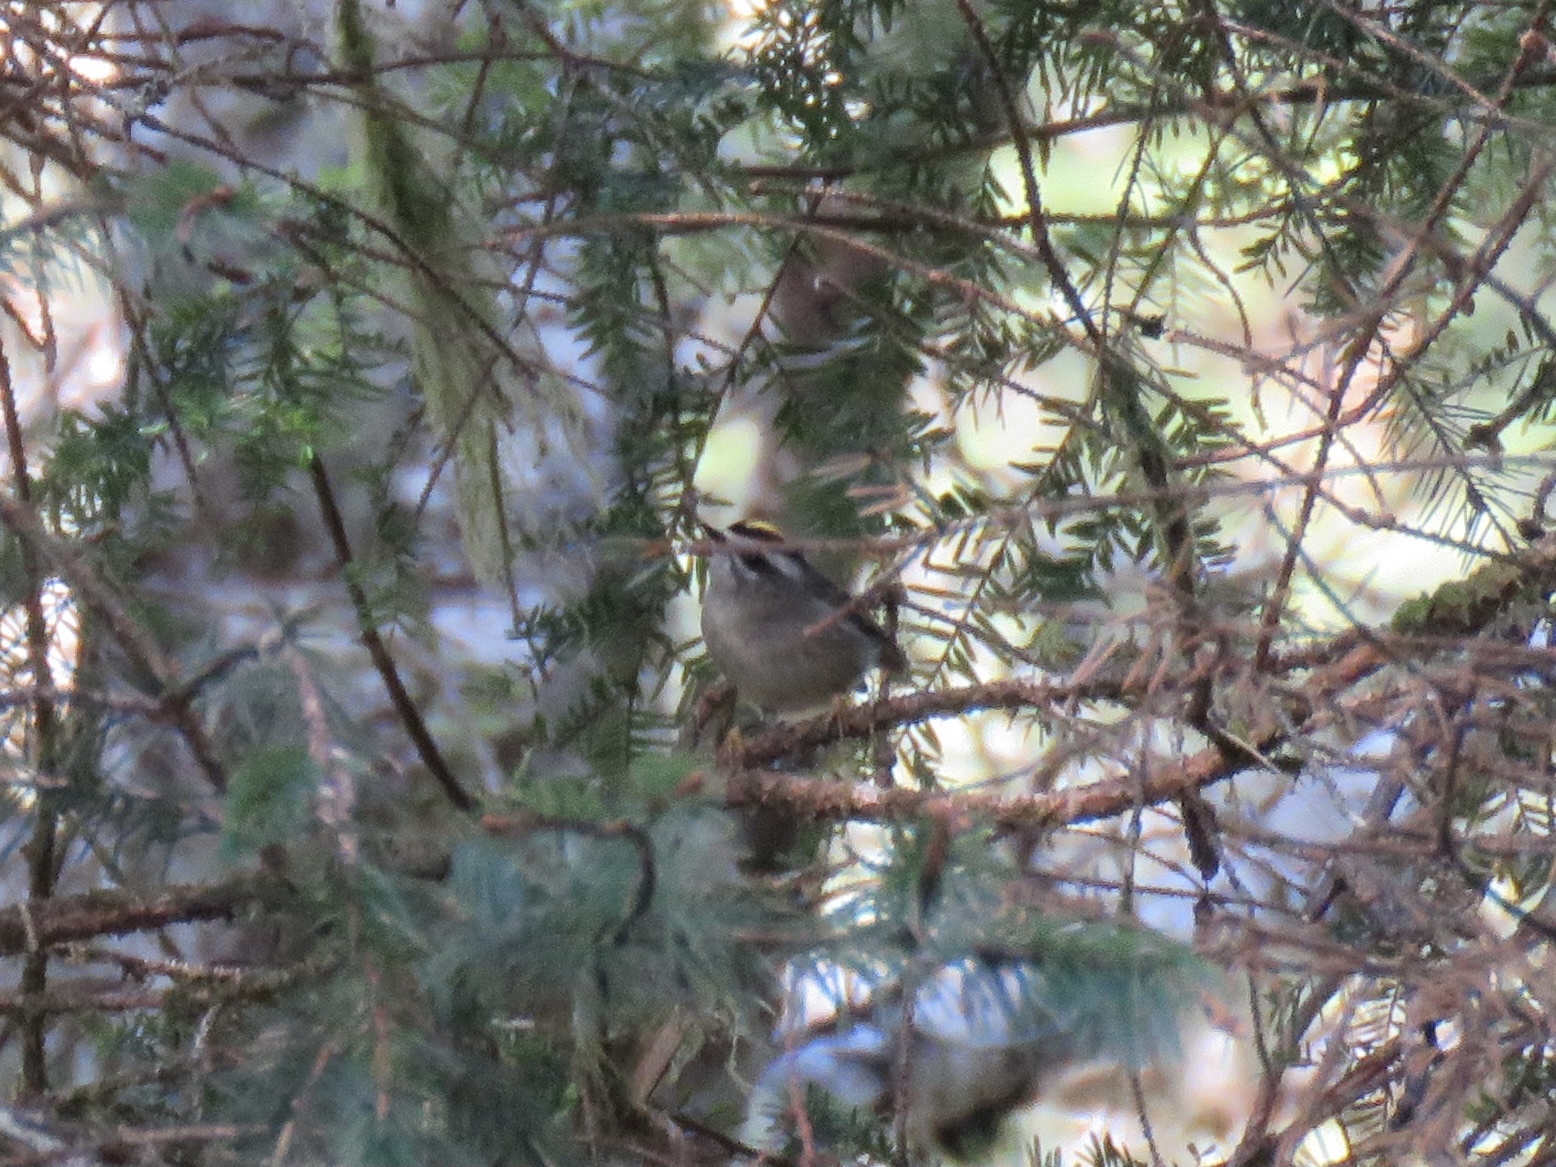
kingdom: Animalia
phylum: Chordata
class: Aves
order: Passeriformes
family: Regulidae
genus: Regulus
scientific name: Regulus satrapa
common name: Golden-crowned kinglet
